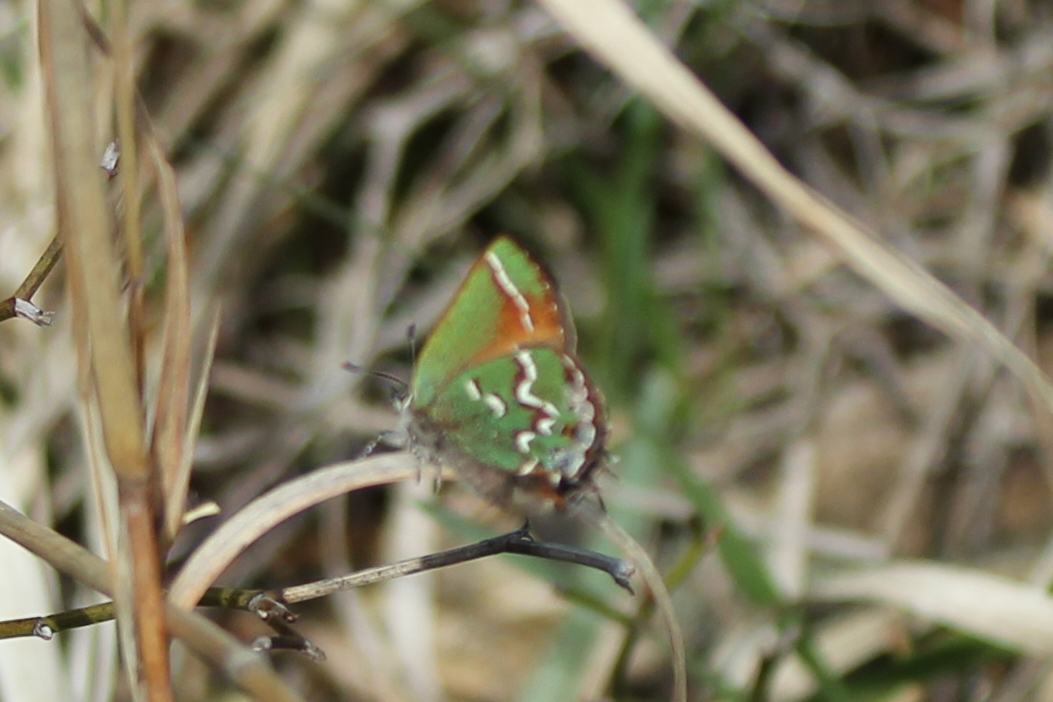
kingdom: Animalia
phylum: Arthropoda
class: Insecta
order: Lepidoptera
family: Lycaenidae
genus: Mitoura
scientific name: Mitoura gryneus
